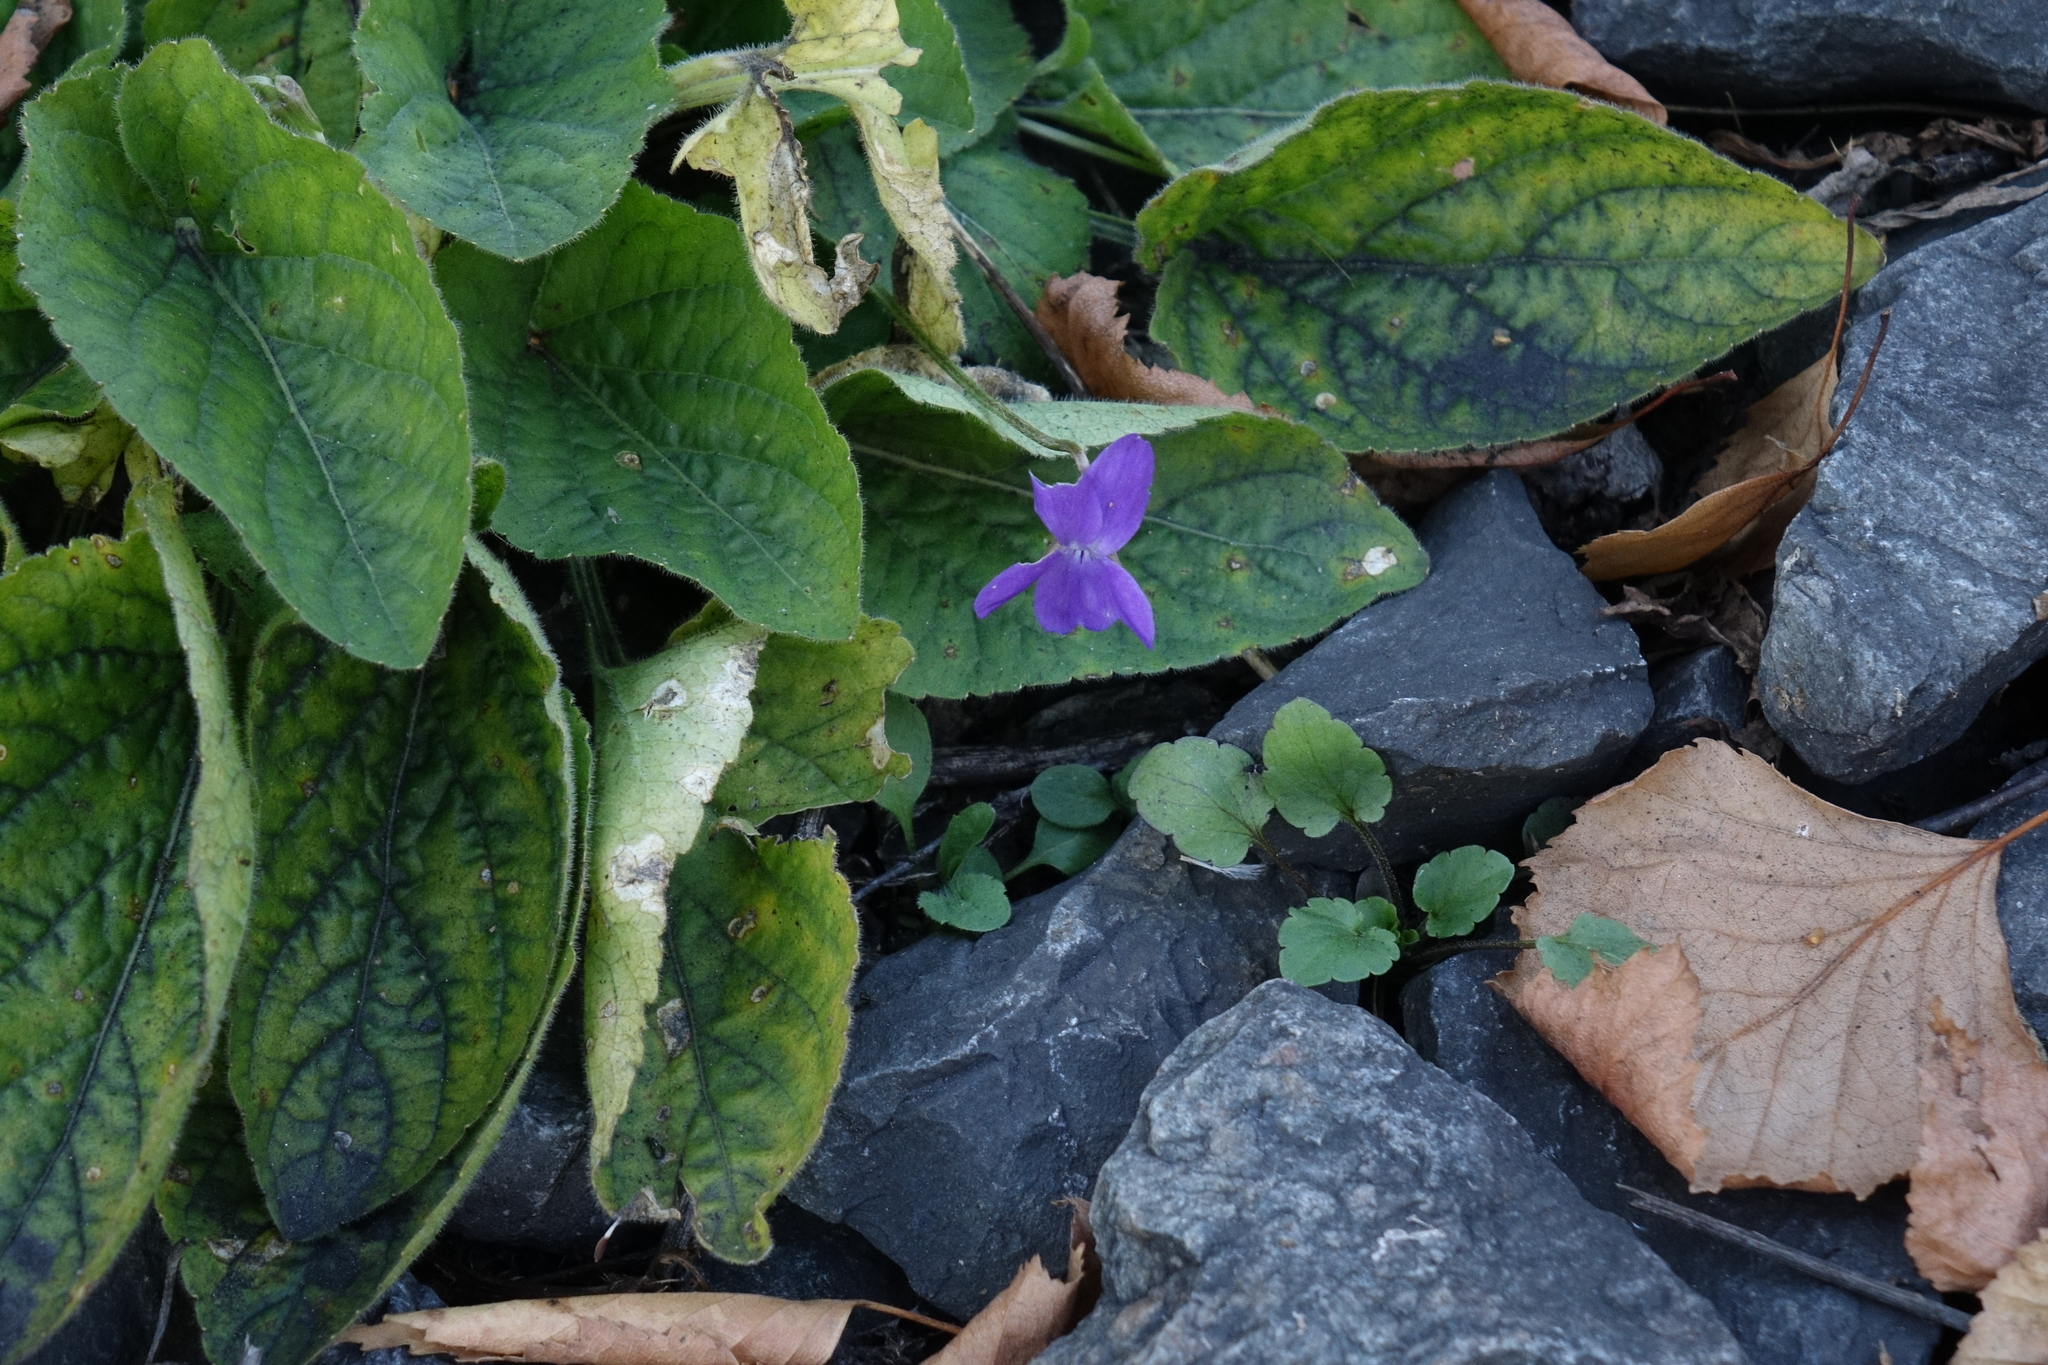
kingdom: Plantae
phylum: Tracheophyta
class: Magnoliopsida
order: Malpighiales
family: Violaceae
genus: Viola
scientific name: Viola hirta
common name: Hairy violet
